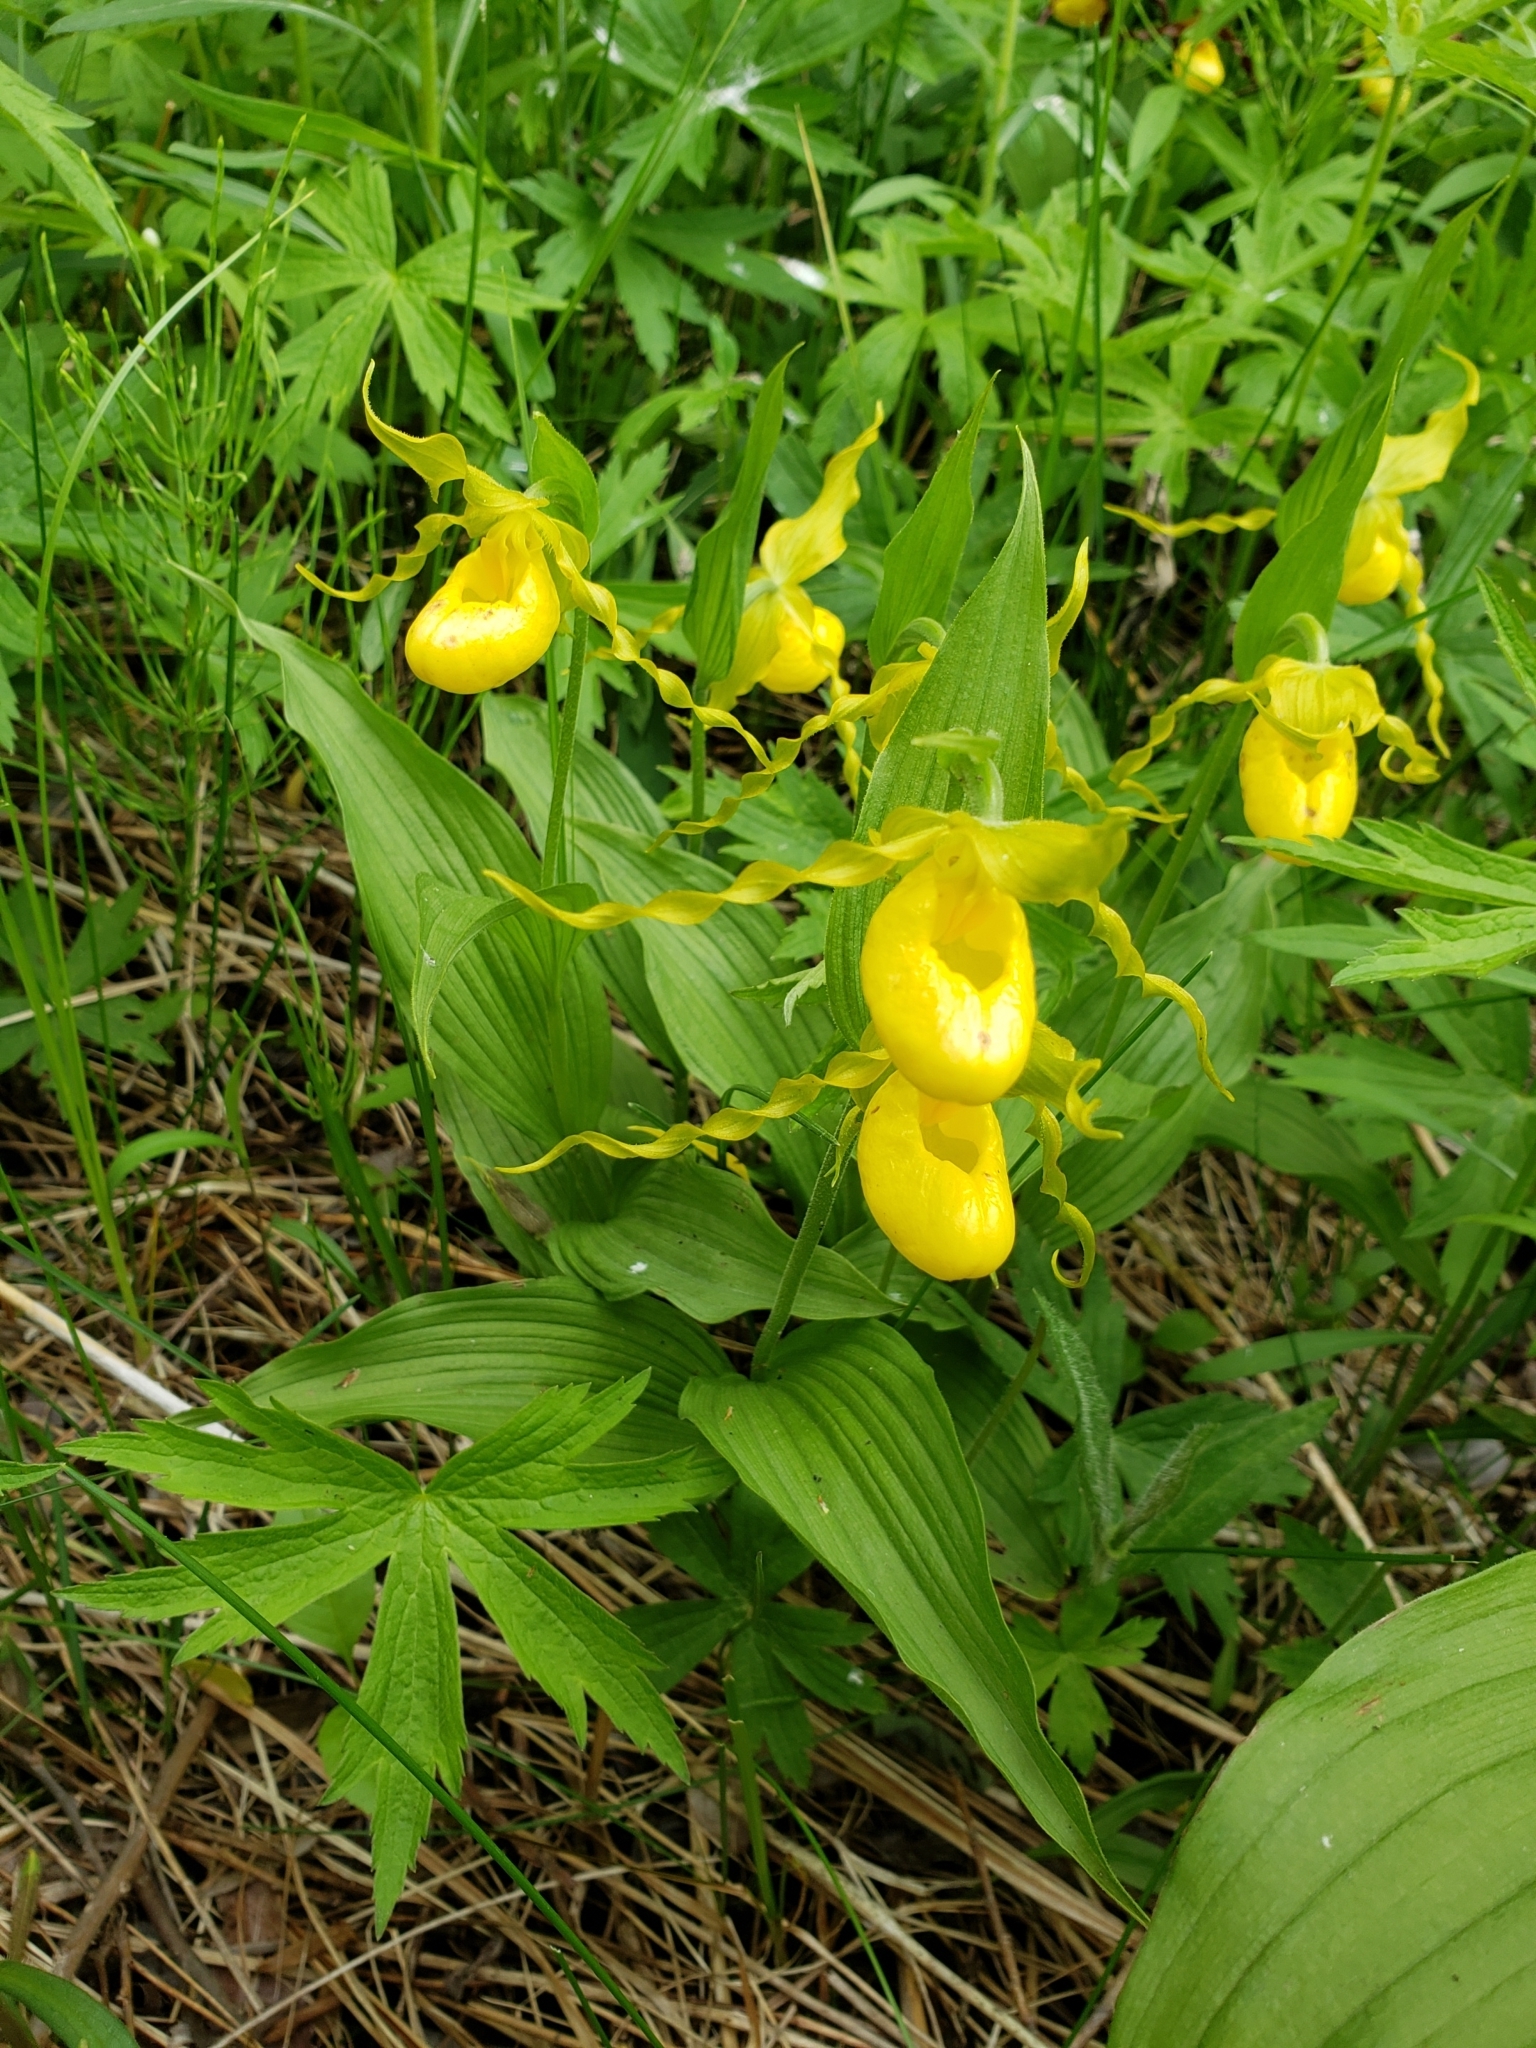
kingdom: Plantae
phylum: Tracheophyta
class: Liliopsida
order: Asparagales
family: Orchidaceae
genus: Cypripedium
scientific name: Cypripedium parviflorum
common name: American yellow lady's-slipper
